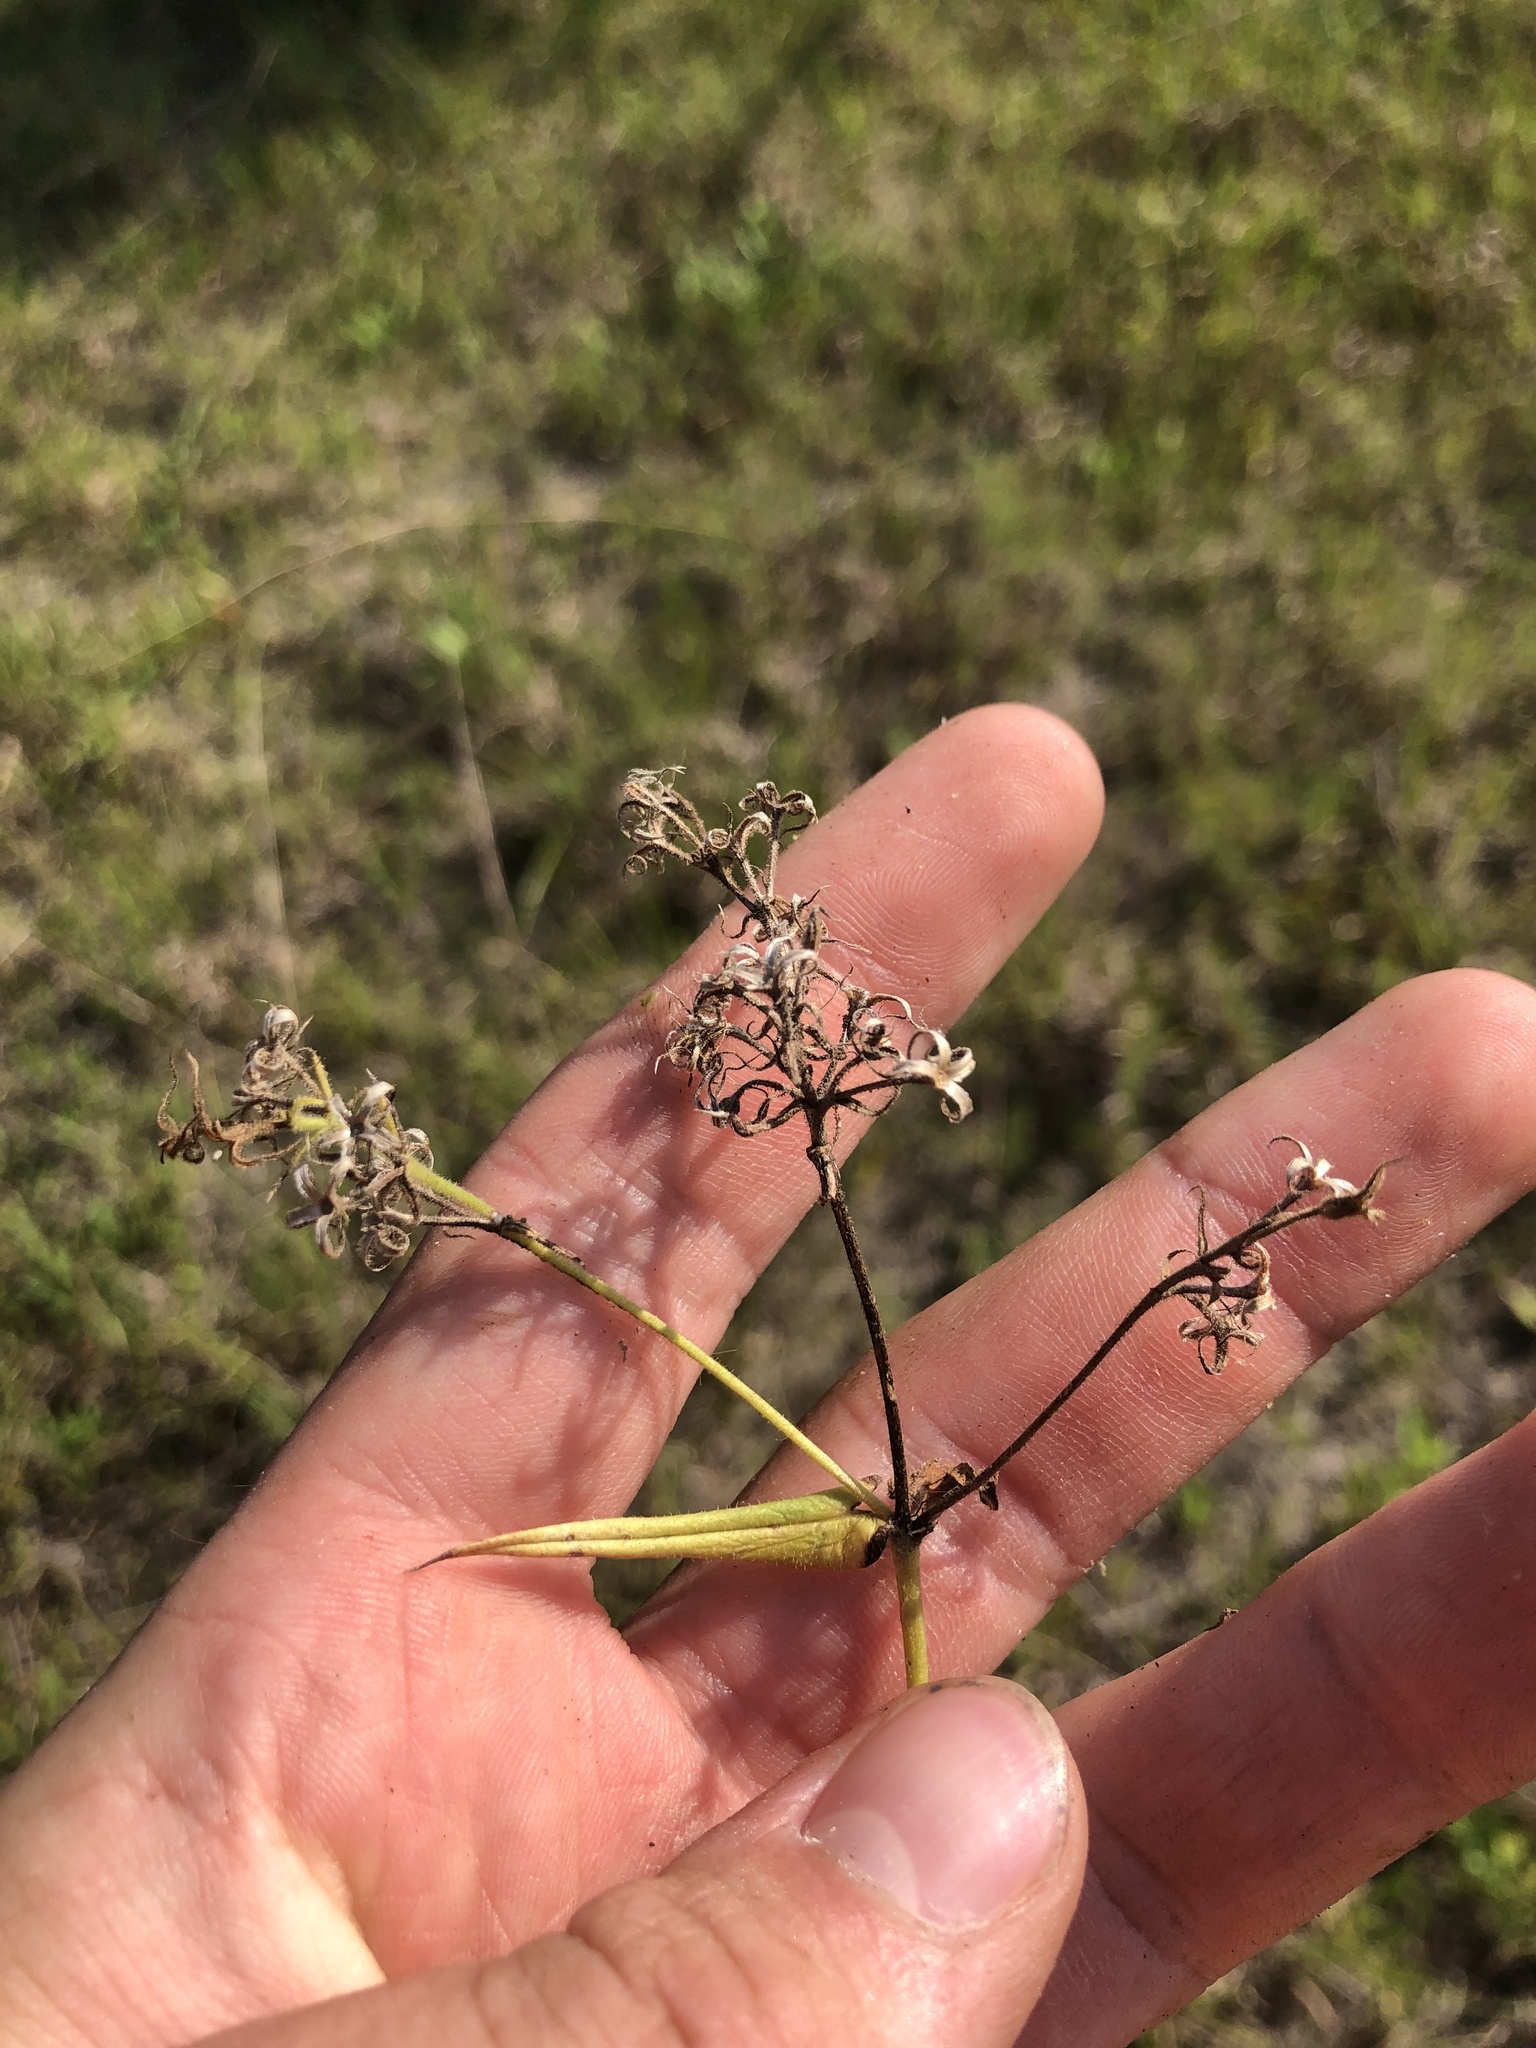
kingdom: Plantae
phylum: Tracheophyta
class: Magnoliopsida
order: Ericales
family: Polemoniaceae
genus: Phlox
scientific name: Phlox pilosa
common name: Prairie phlox
